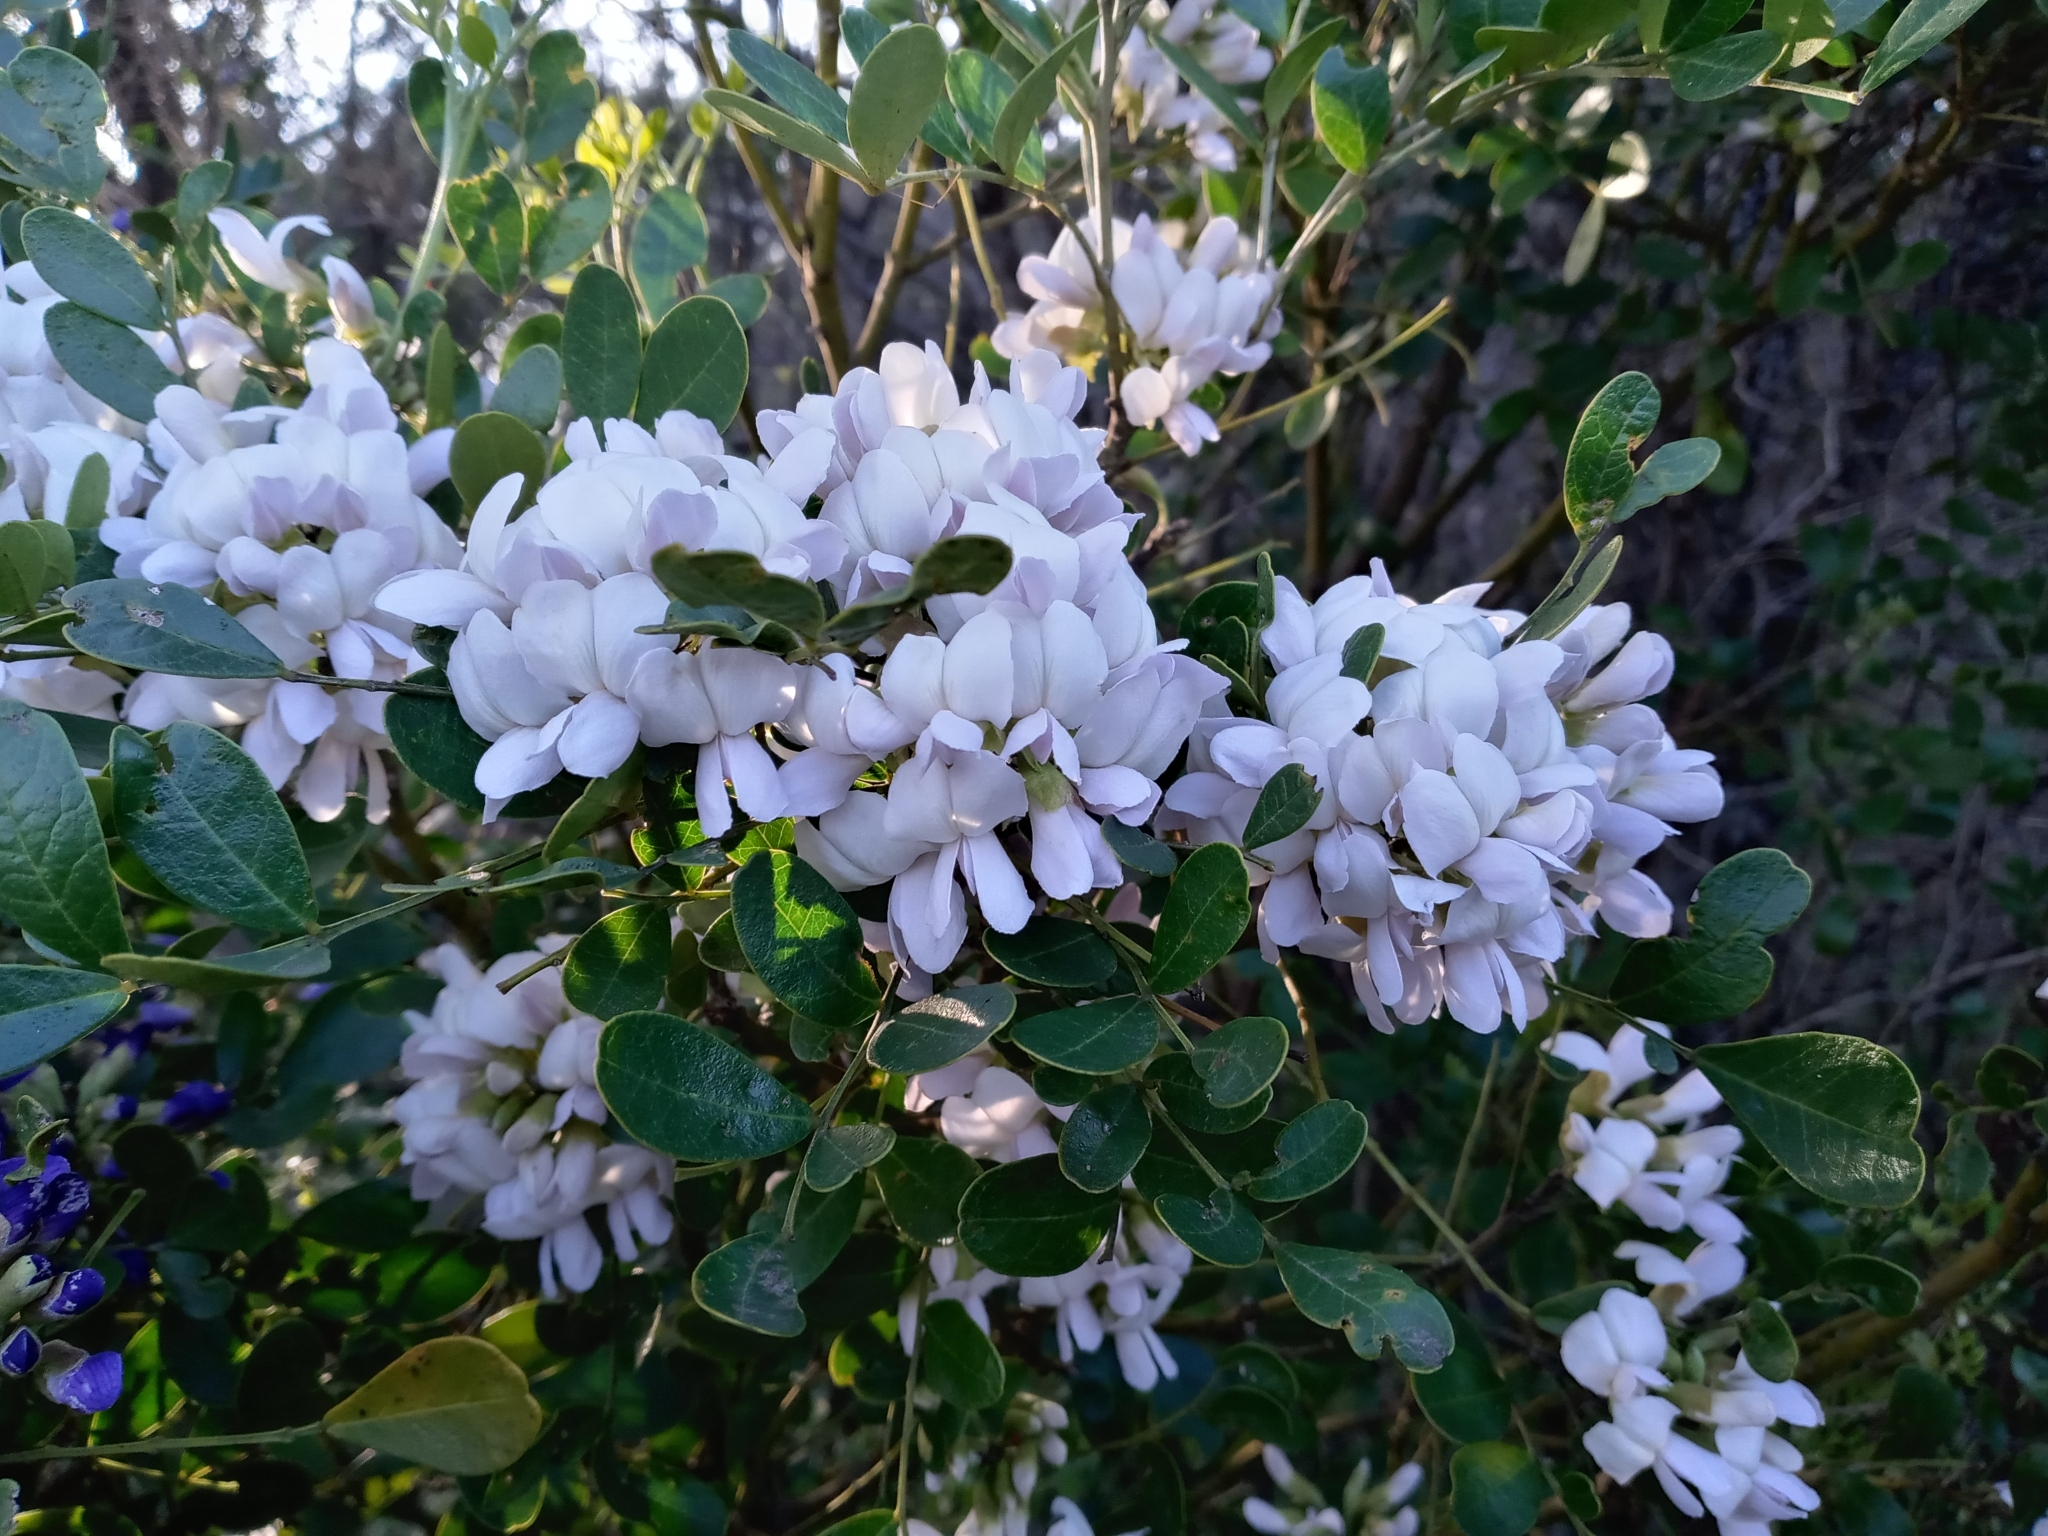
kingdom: Plantae
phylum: Tracheophyta
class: Magnoliopsida
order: Fabales
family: Fabaceae
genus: Dermatophyllum
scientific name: Dermatophyllum secundiflorum
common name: Texas-mountain-laurel
